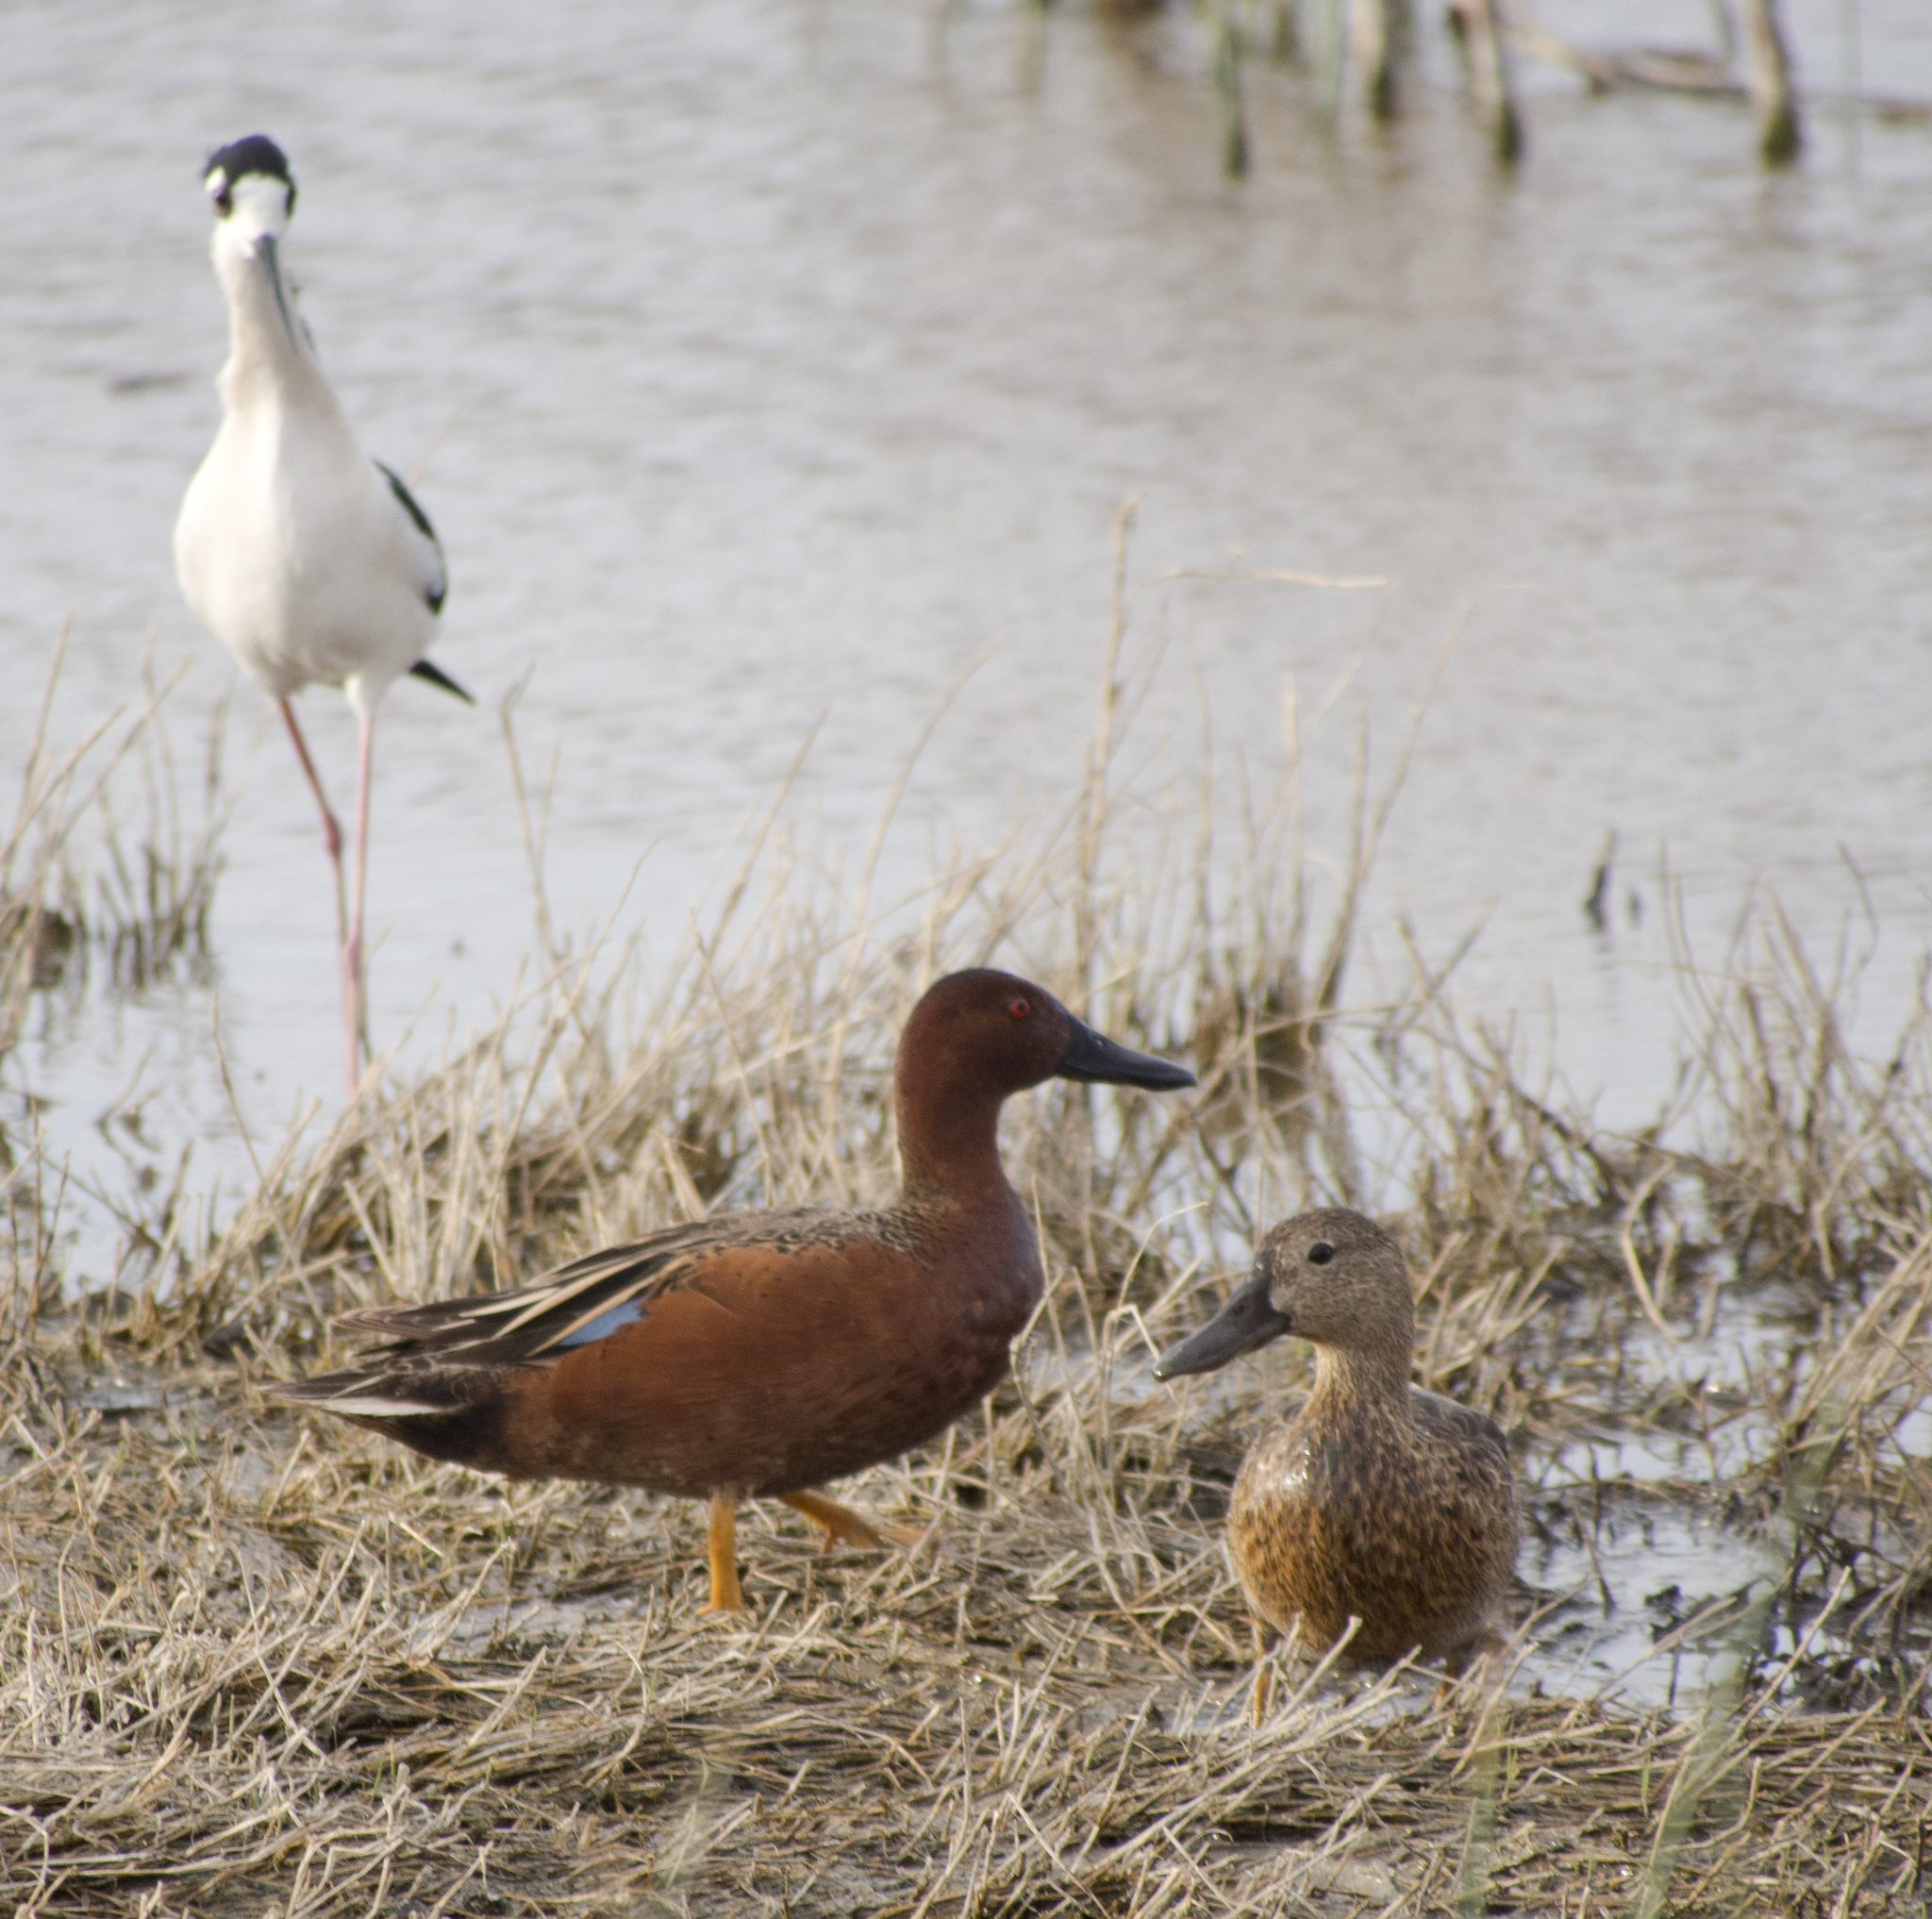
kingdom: Animalia
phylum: Chordata
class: Aves
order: Anseriformes
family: Anatidae
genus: Spatula
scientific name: Spatula cyanoptera
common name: Cinnamon teal
